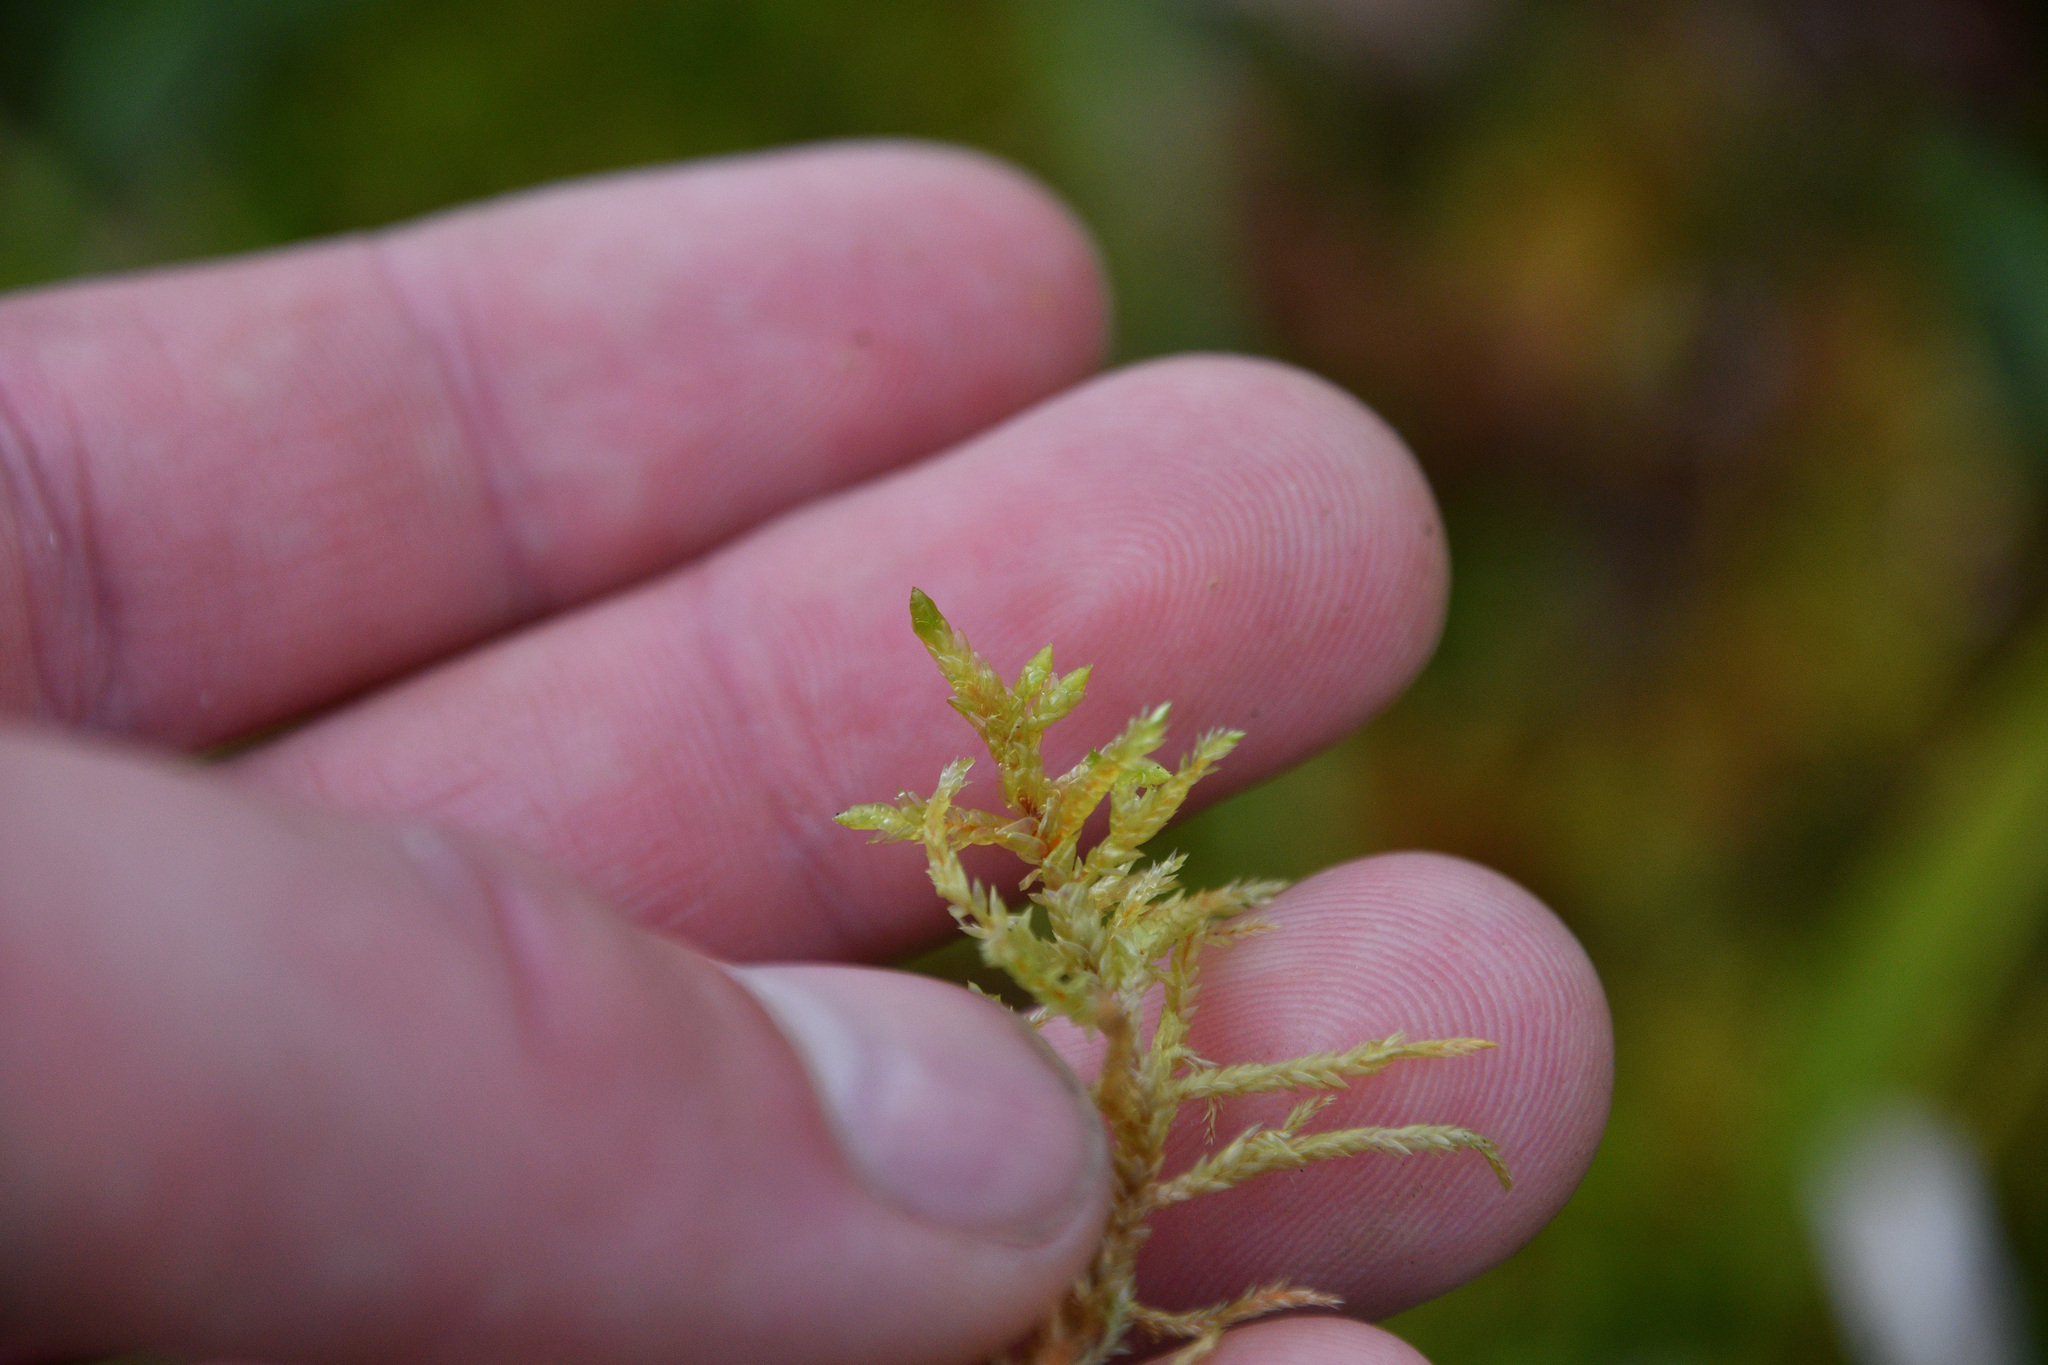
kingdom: Plantae
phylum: Bryophyta
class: Bryopsida
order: Hypnales
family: Hylocomiaceae
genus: Pleurozium
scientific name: Pleurozium schreberi
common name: Red-stemmed feather moss
